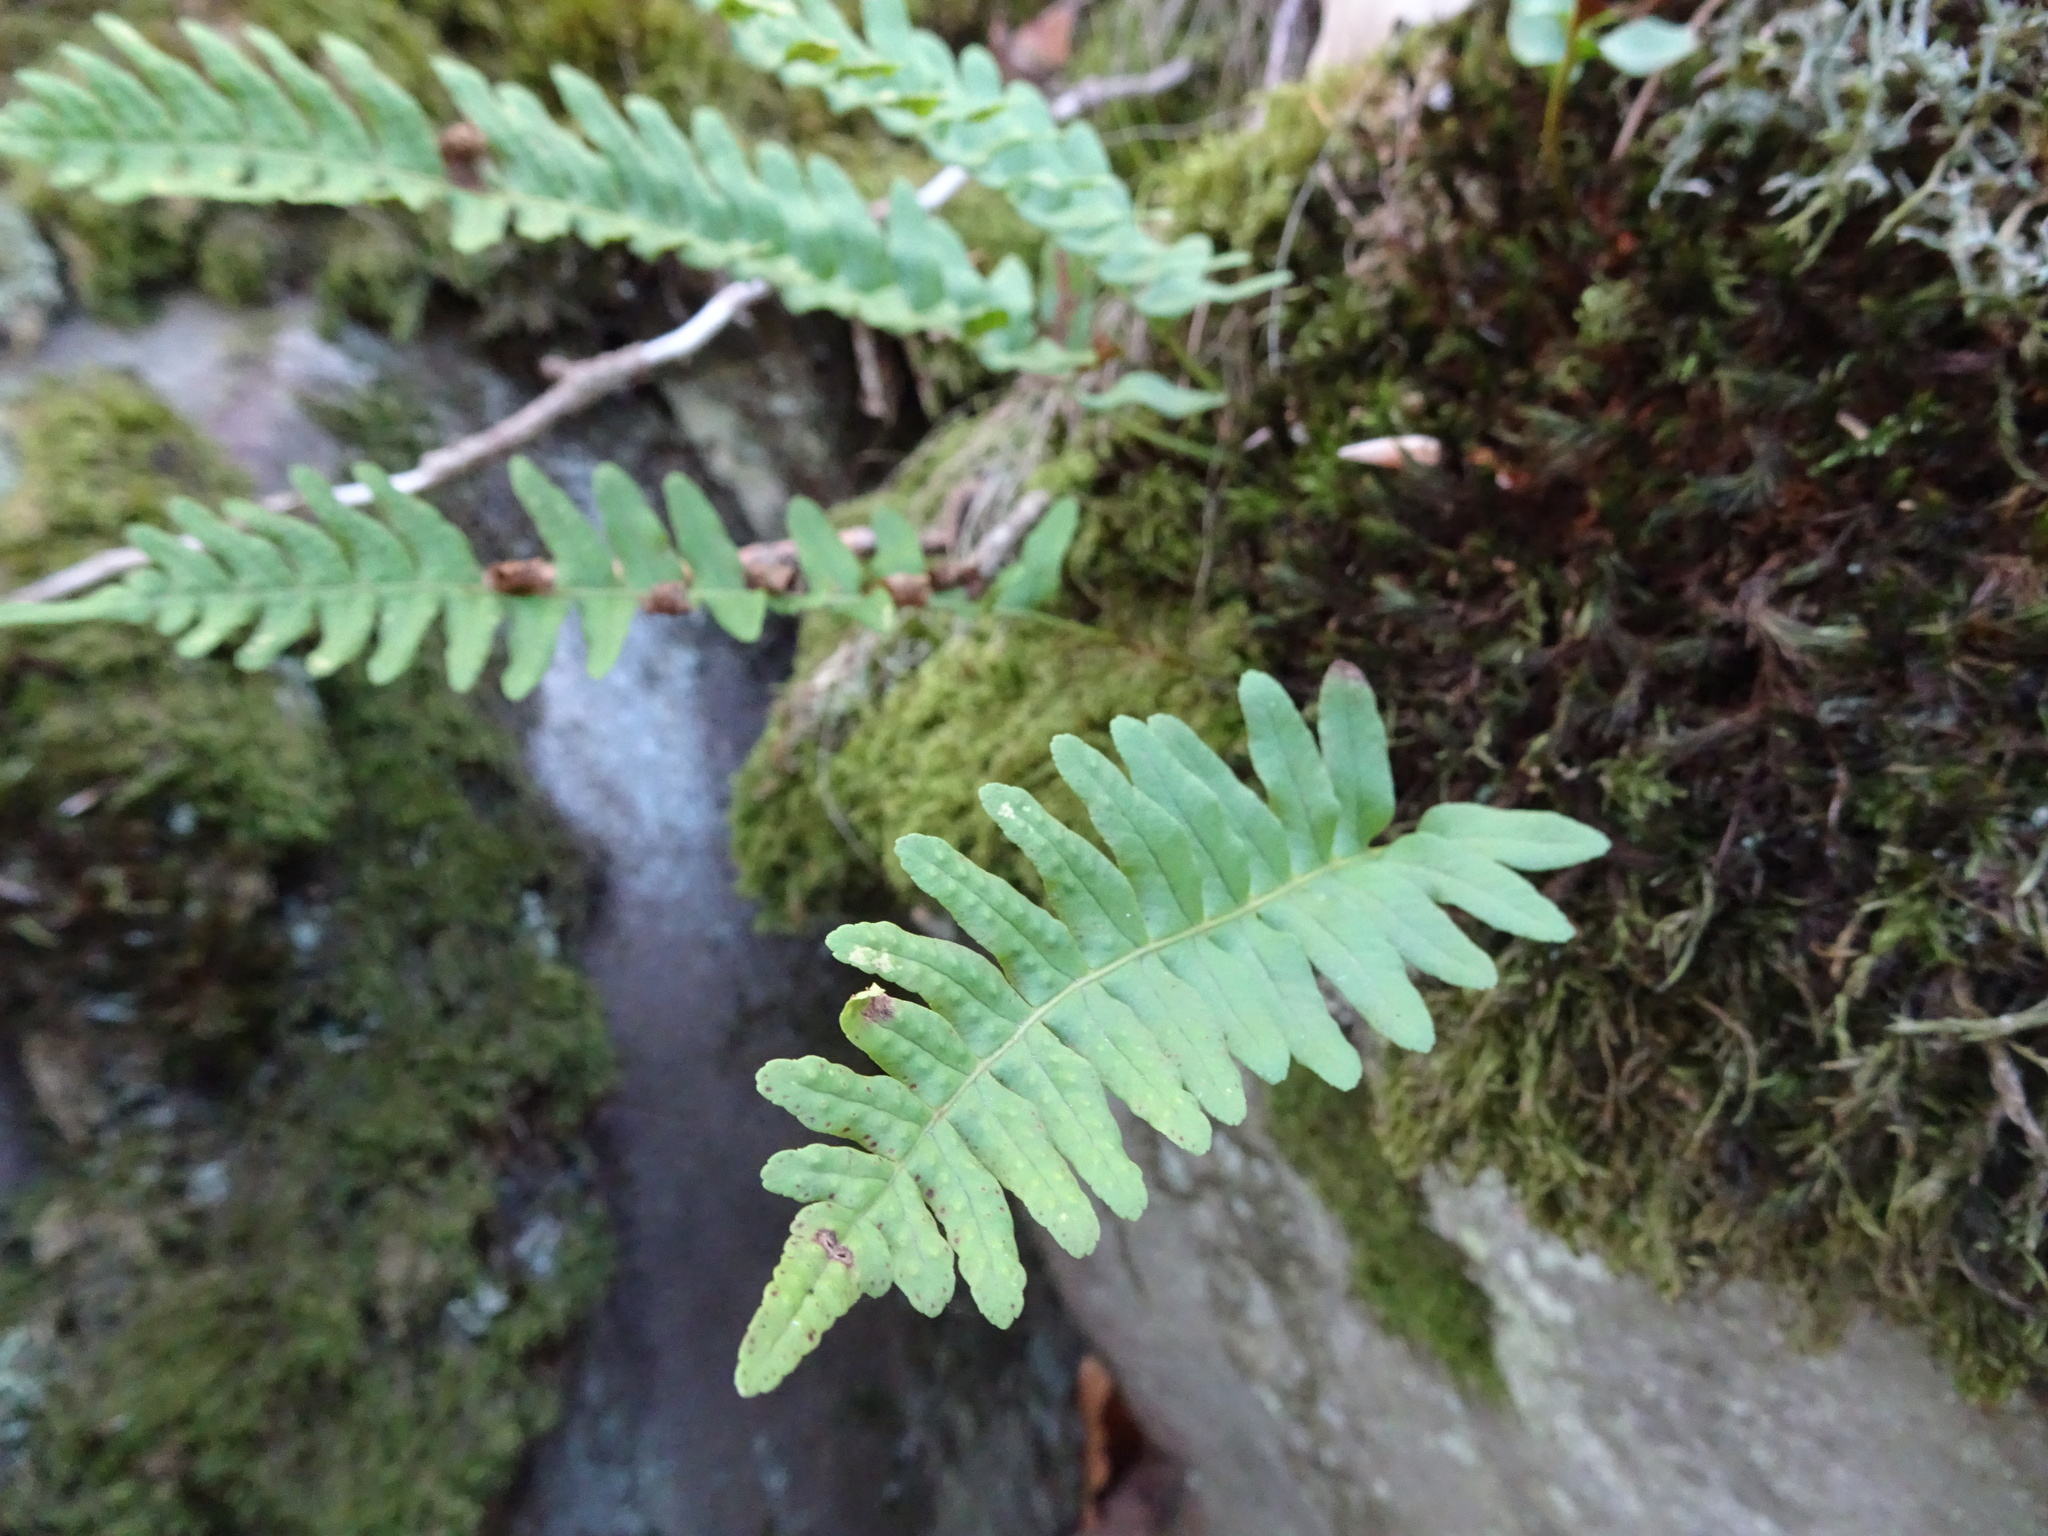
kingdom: Plantae
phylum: Tracheophyta
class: Polypodiopsida
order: Polypodiales
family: Polypodiaceae
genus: Polypodium
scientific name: Polypodium vulgare
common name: Common polypody
